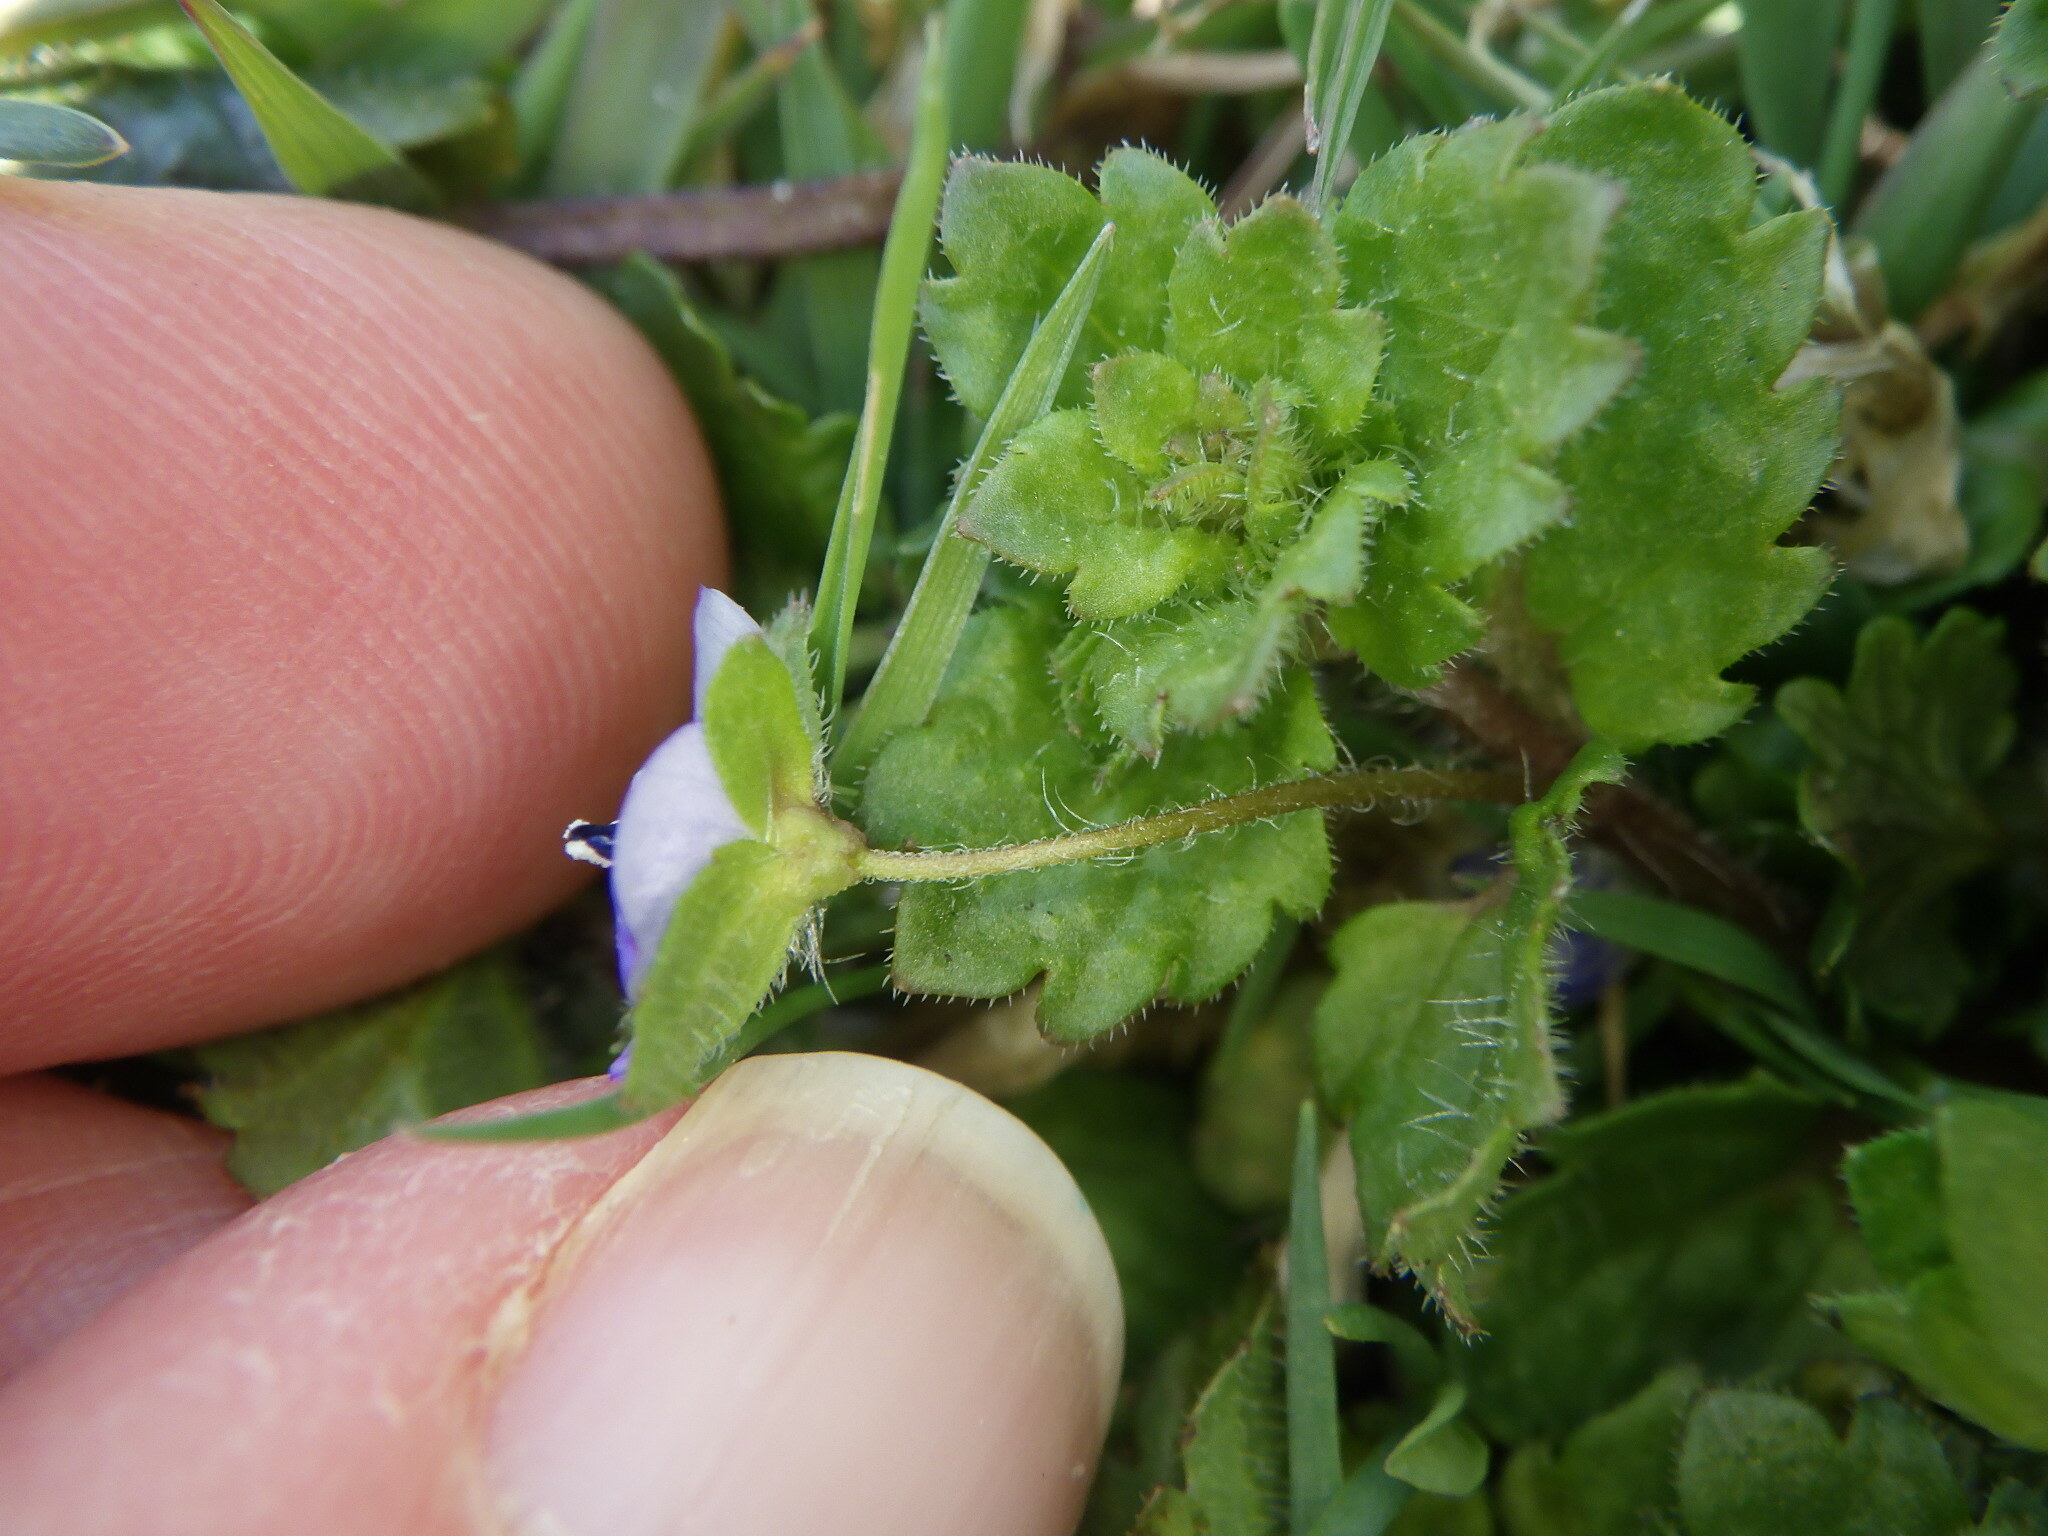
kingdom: Plantae
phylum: Tracheophyta
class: Magnoliopsida
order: Lamiales
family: Plantaginaceae
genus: Veronica
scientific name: Veronica persica
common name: Common field-speedwell
